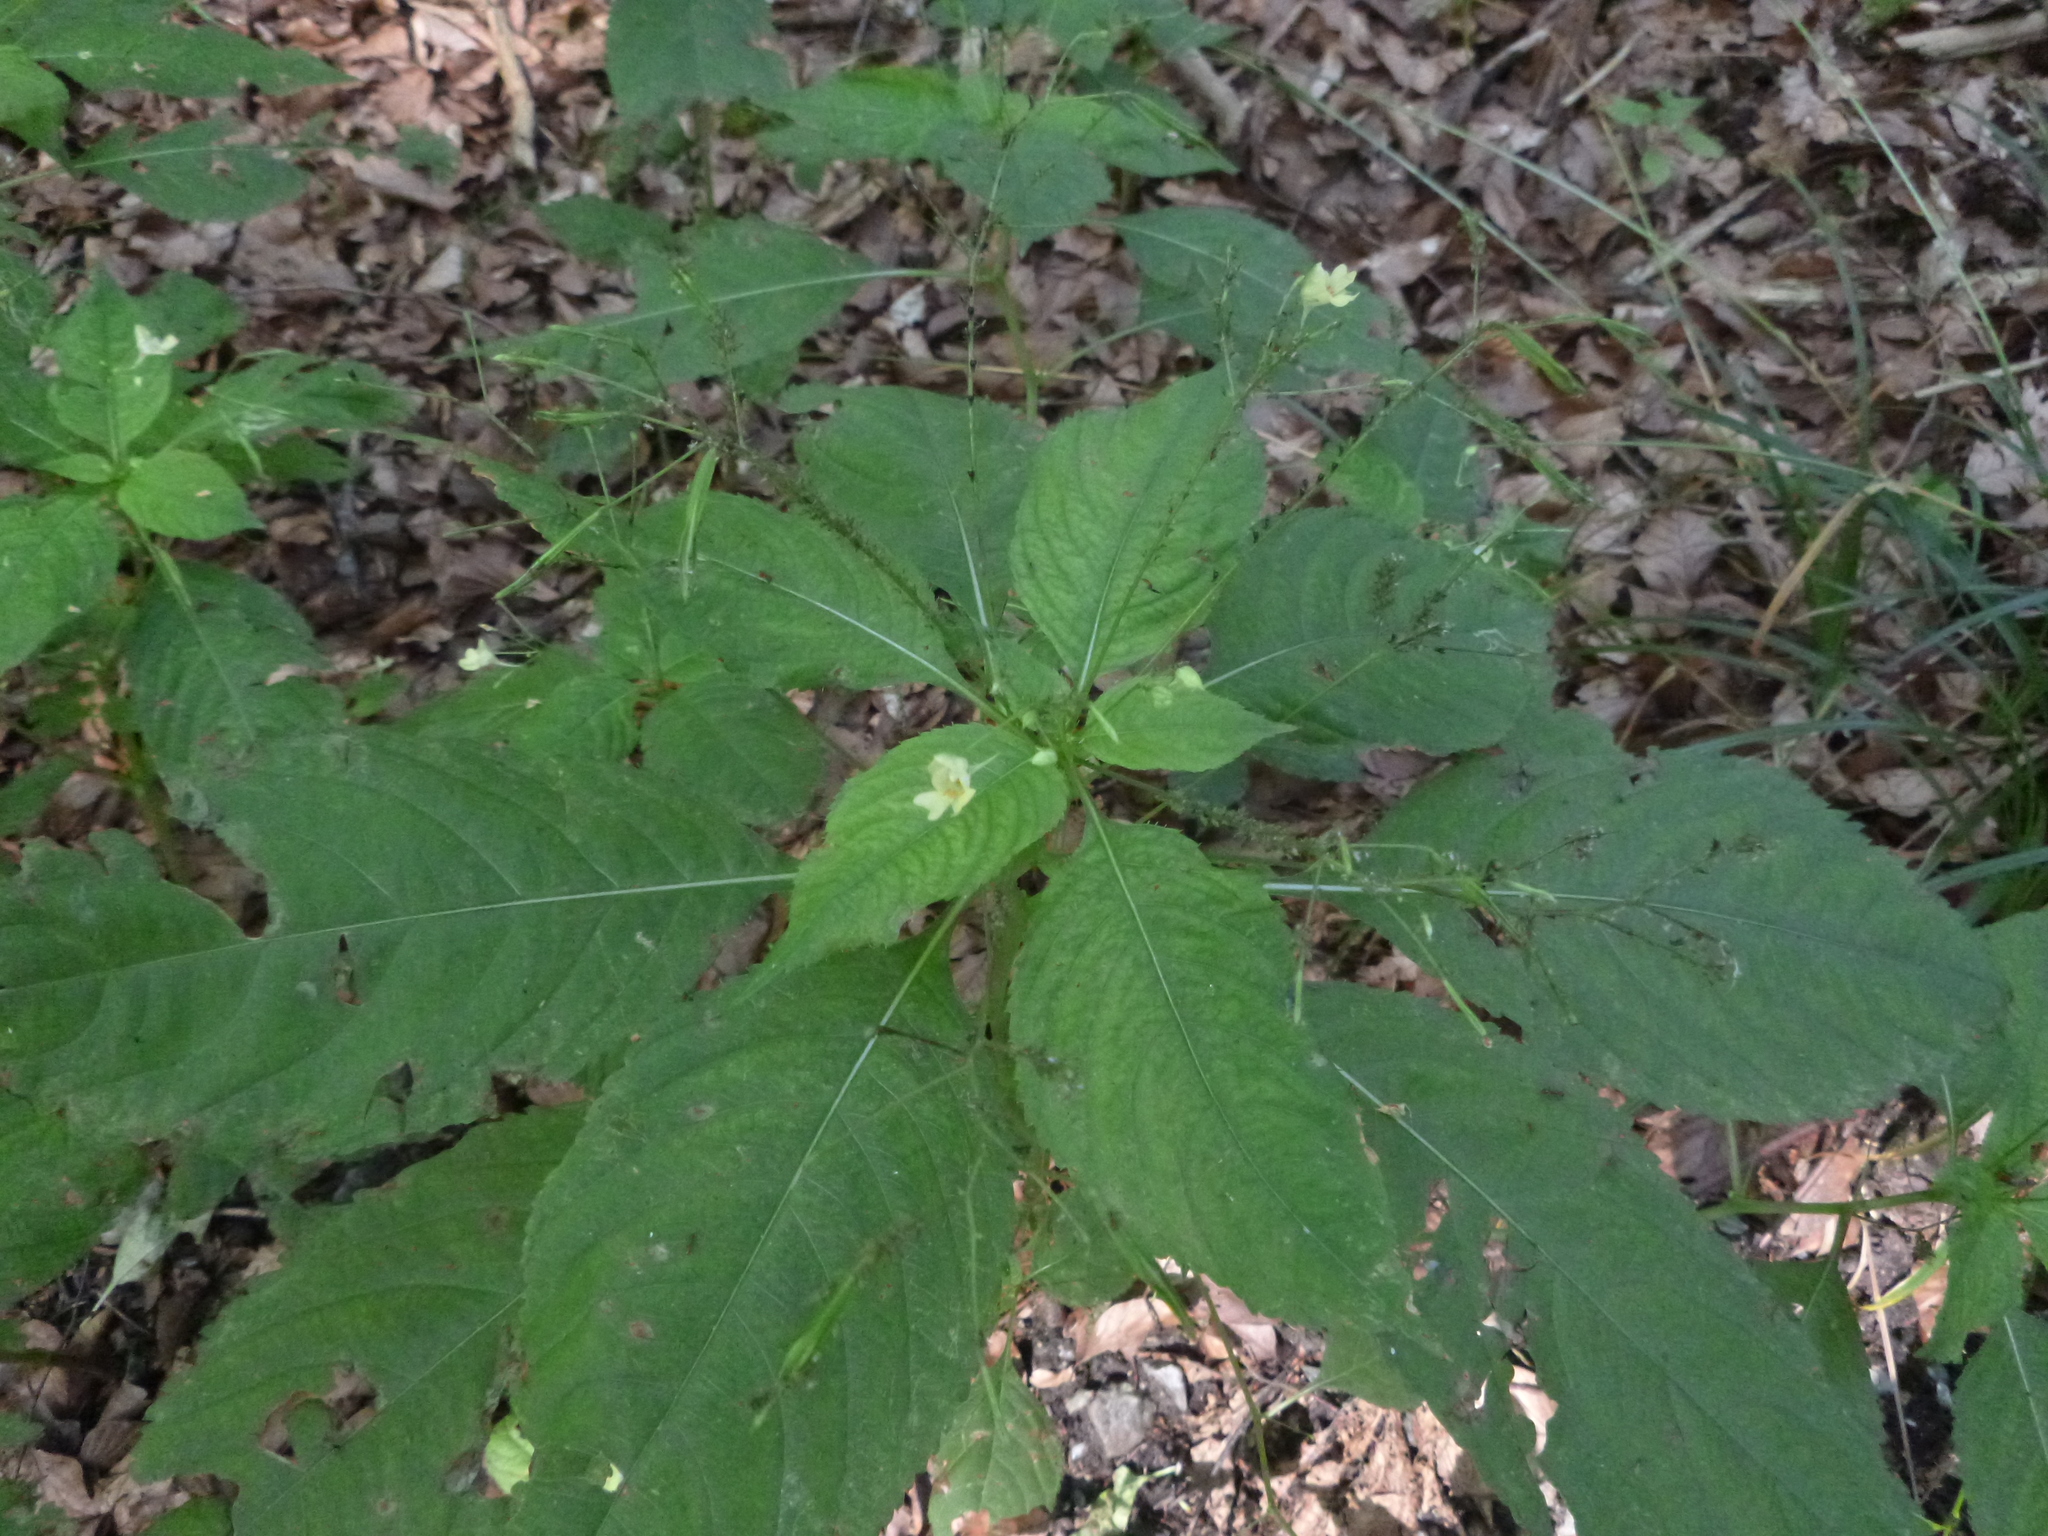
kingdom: Plantae
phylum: Tracheophyta
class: Magnoliopsida
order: Ericales
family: Balsaminaceae
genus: Impatiens
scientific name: Impatiens parviflora
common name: Small balsam
